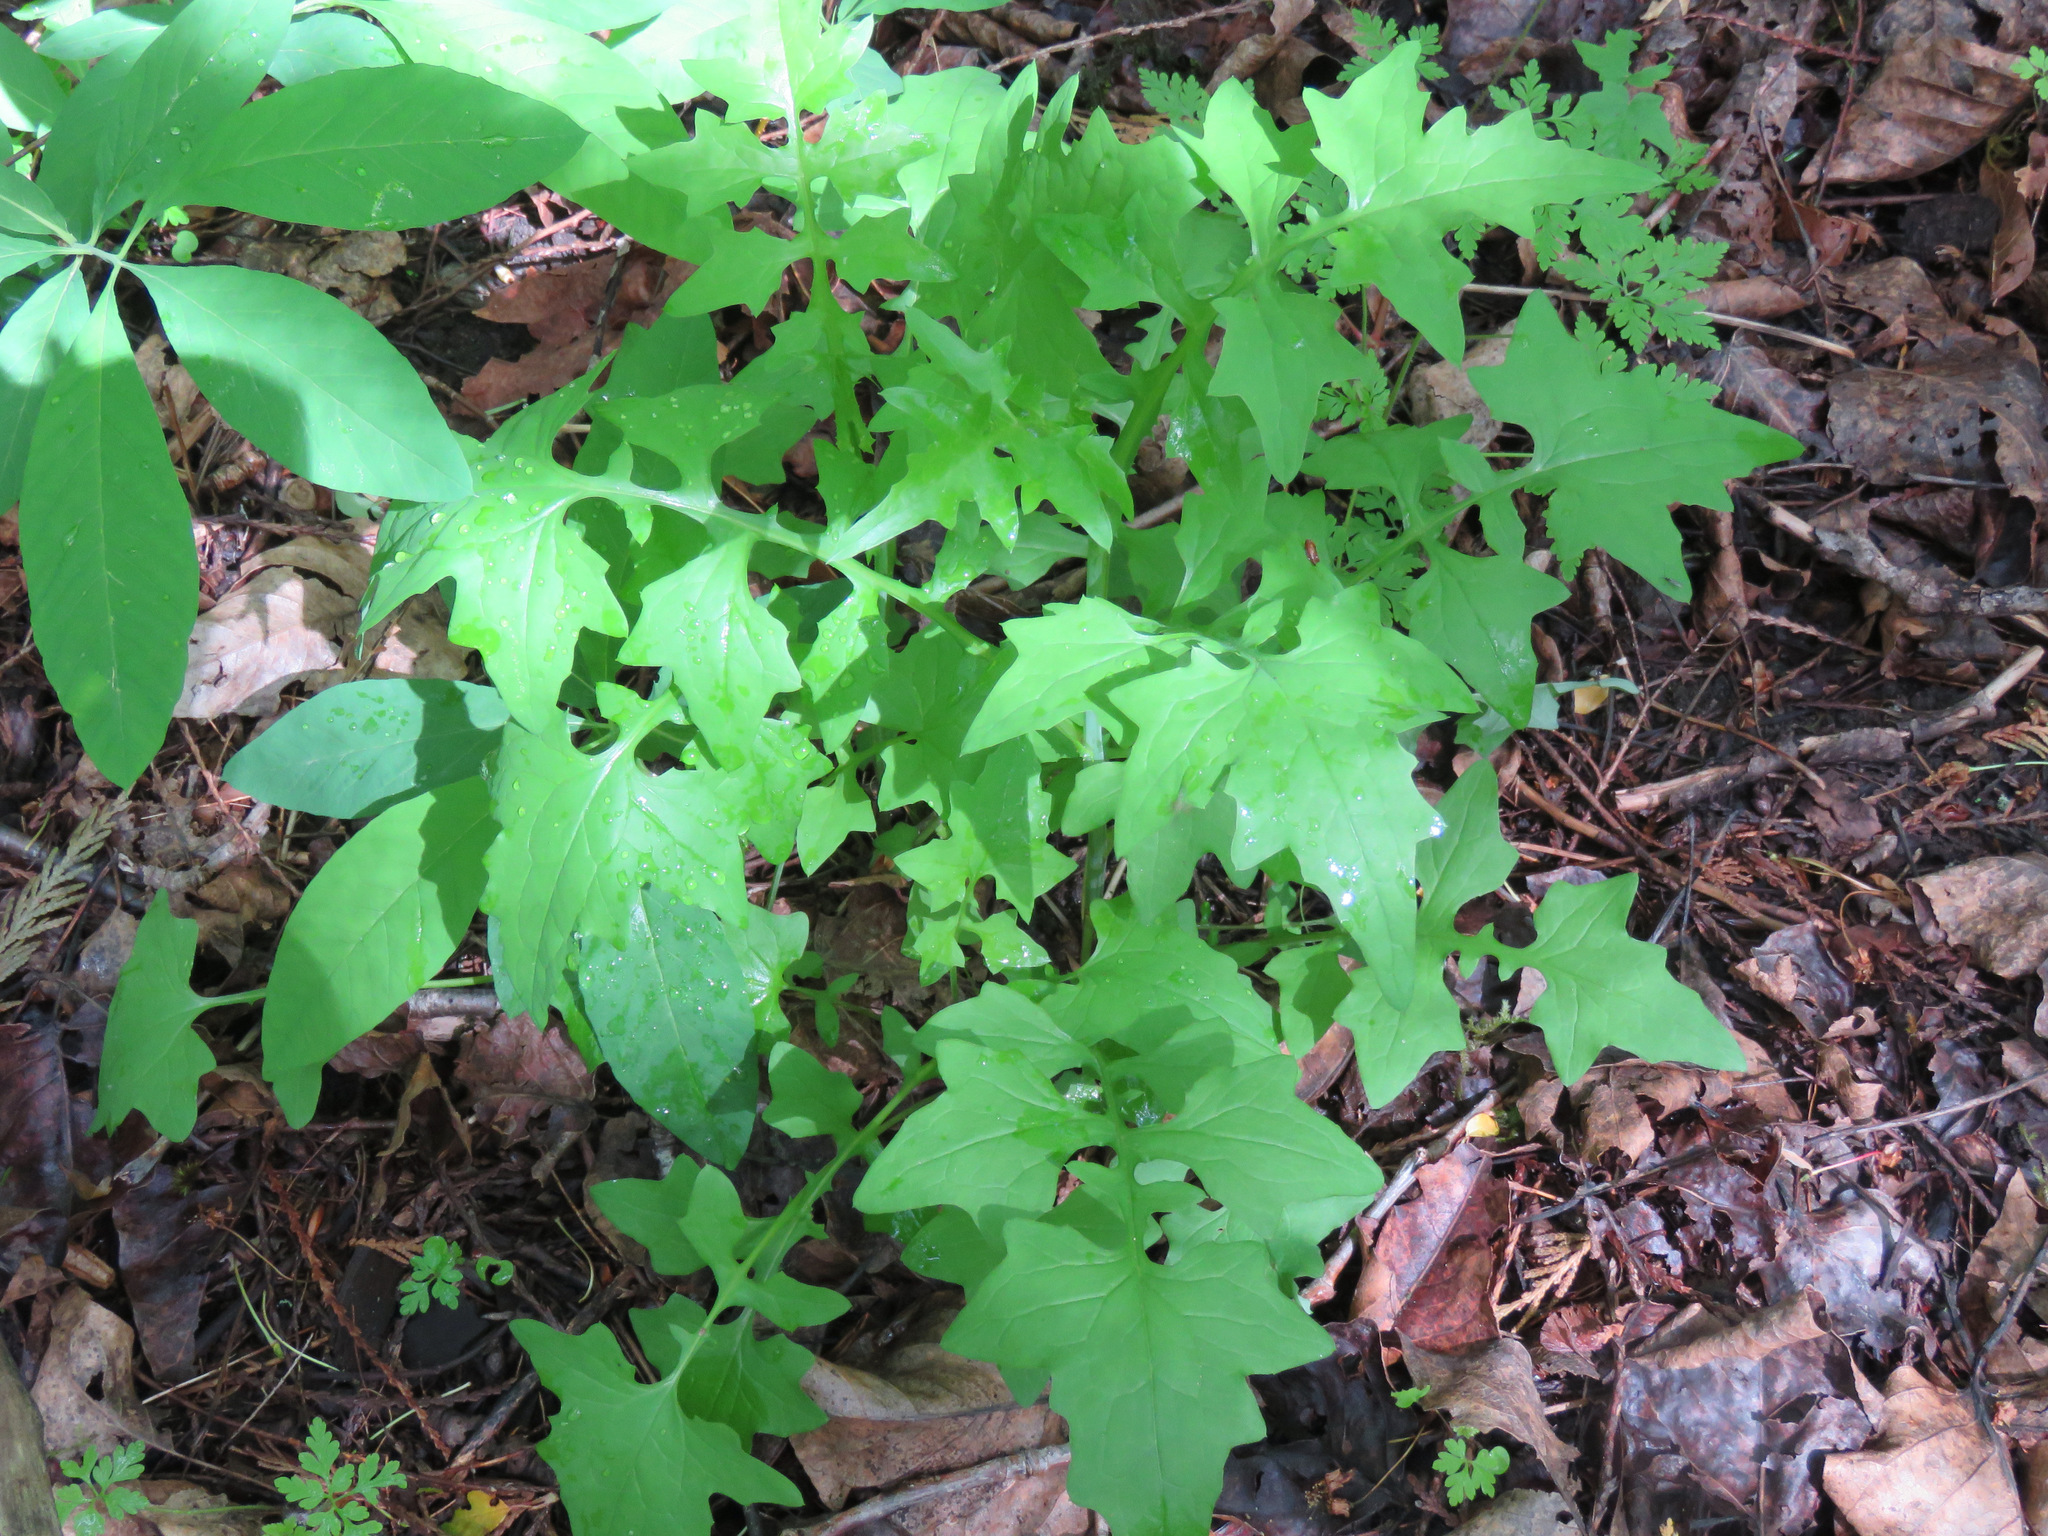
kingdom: Plantae
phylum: Tracheophyta
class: Magnoliopsida
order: Asterales
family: Asteraceae
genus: Mycelis
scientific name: Mycelis muralis
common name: Wall lettuce
